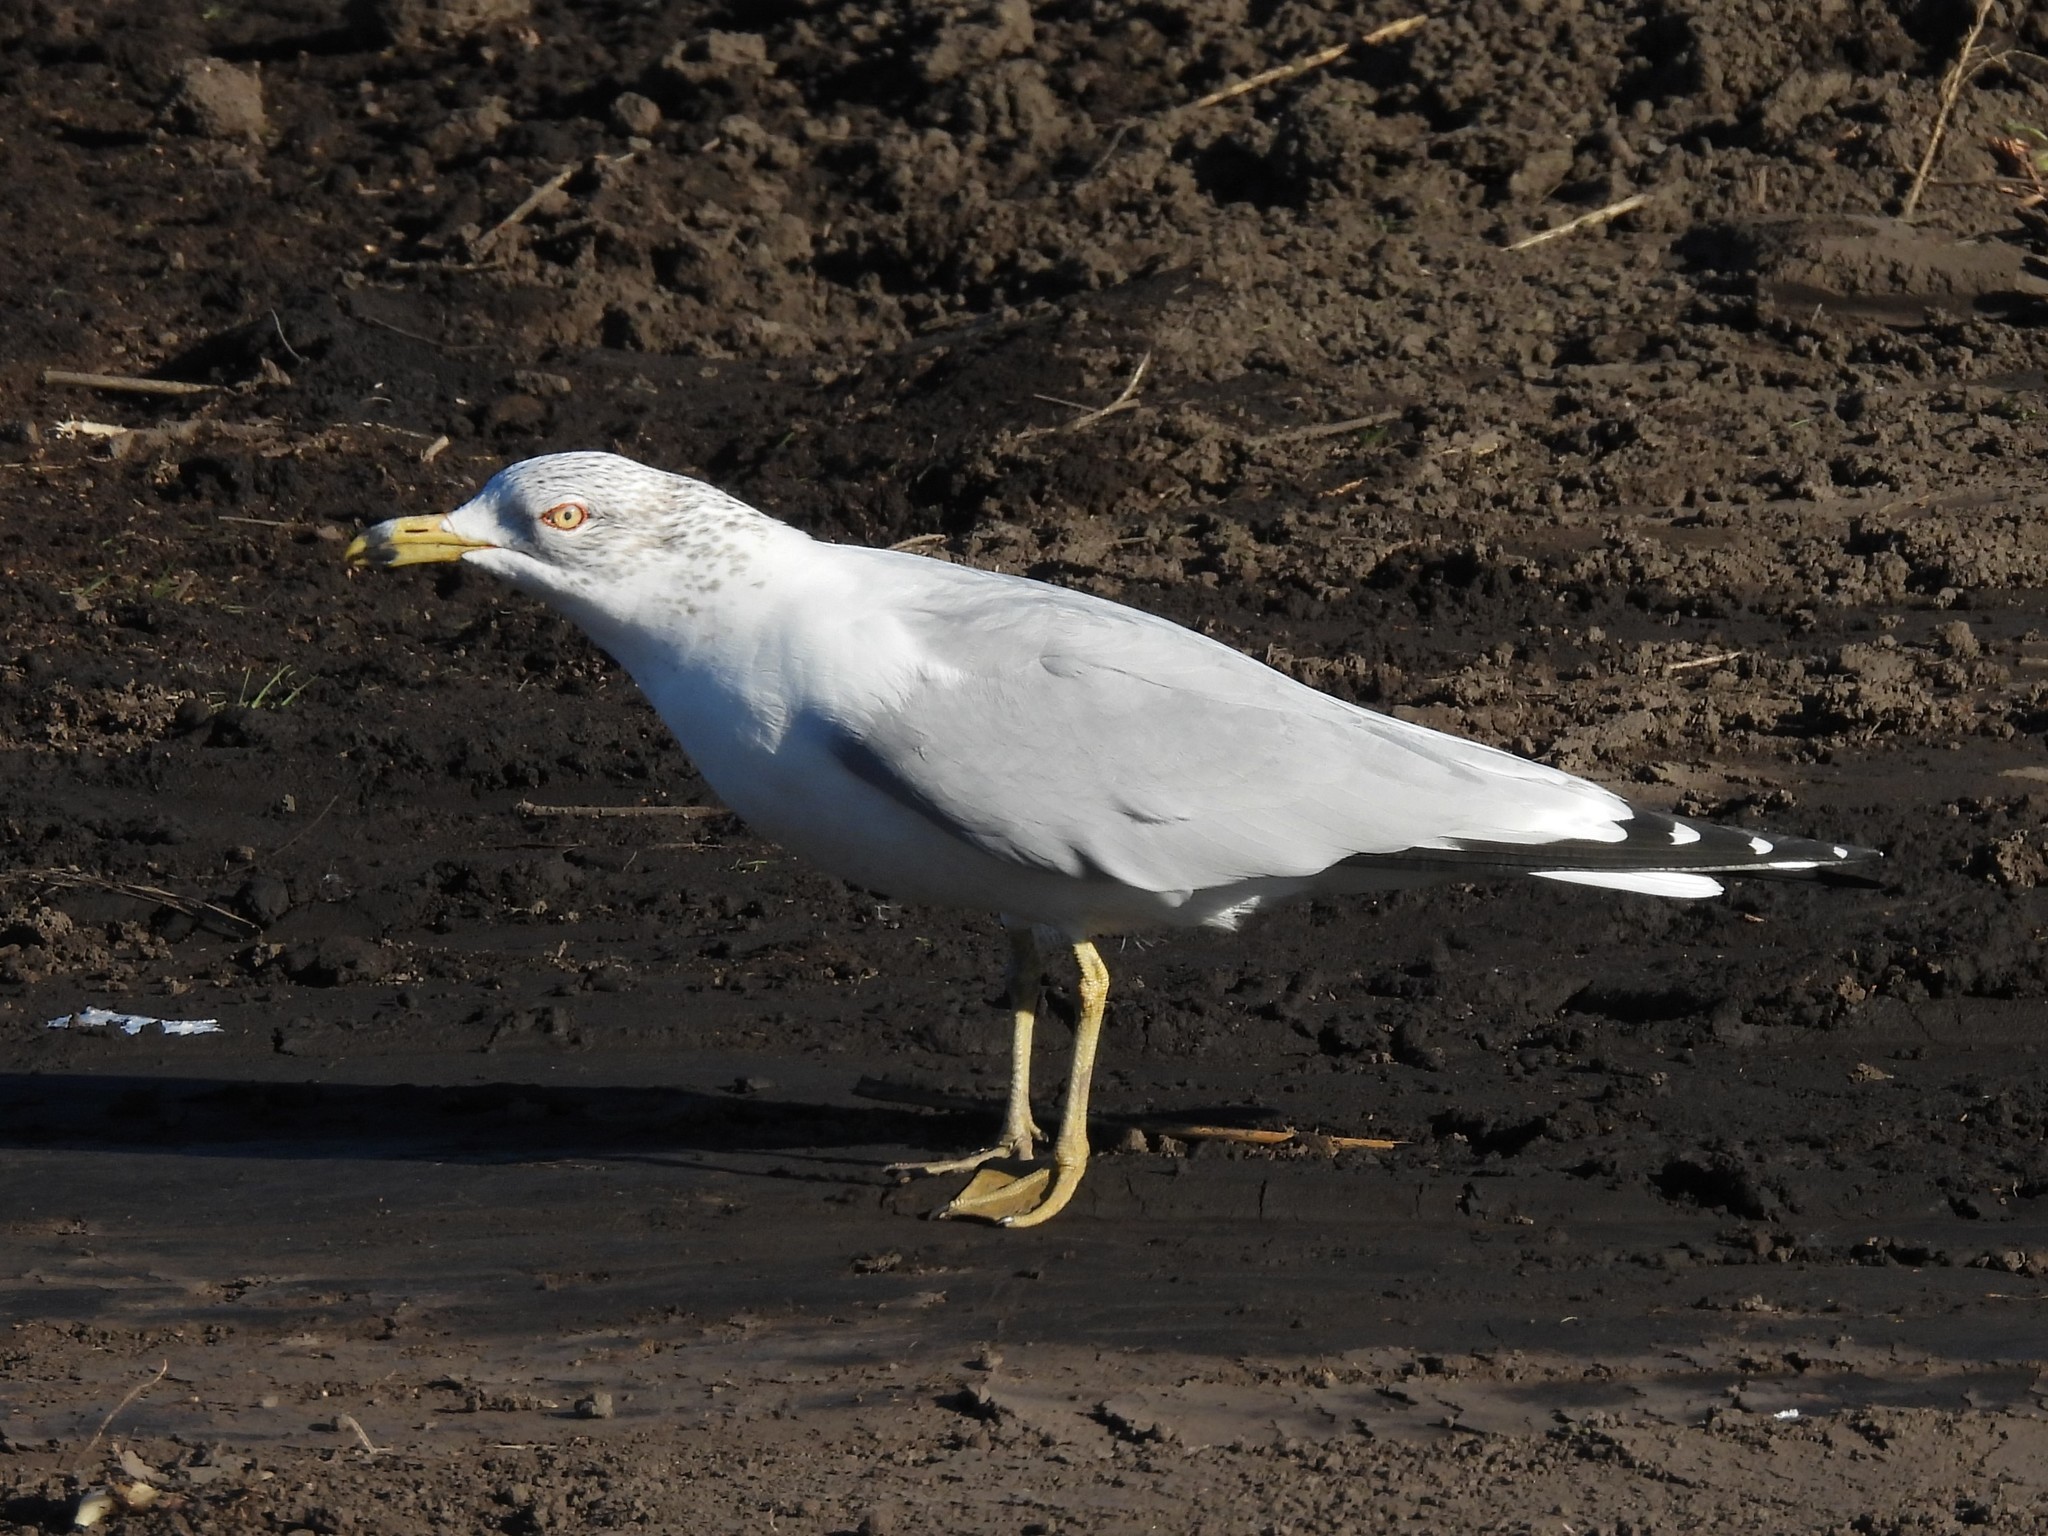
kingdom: Animalia
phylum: Chordata
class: Aves
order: Charadriiformes
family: Laridae
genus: Larus
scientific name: Larus delawarensis
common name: Ring-billed gull
